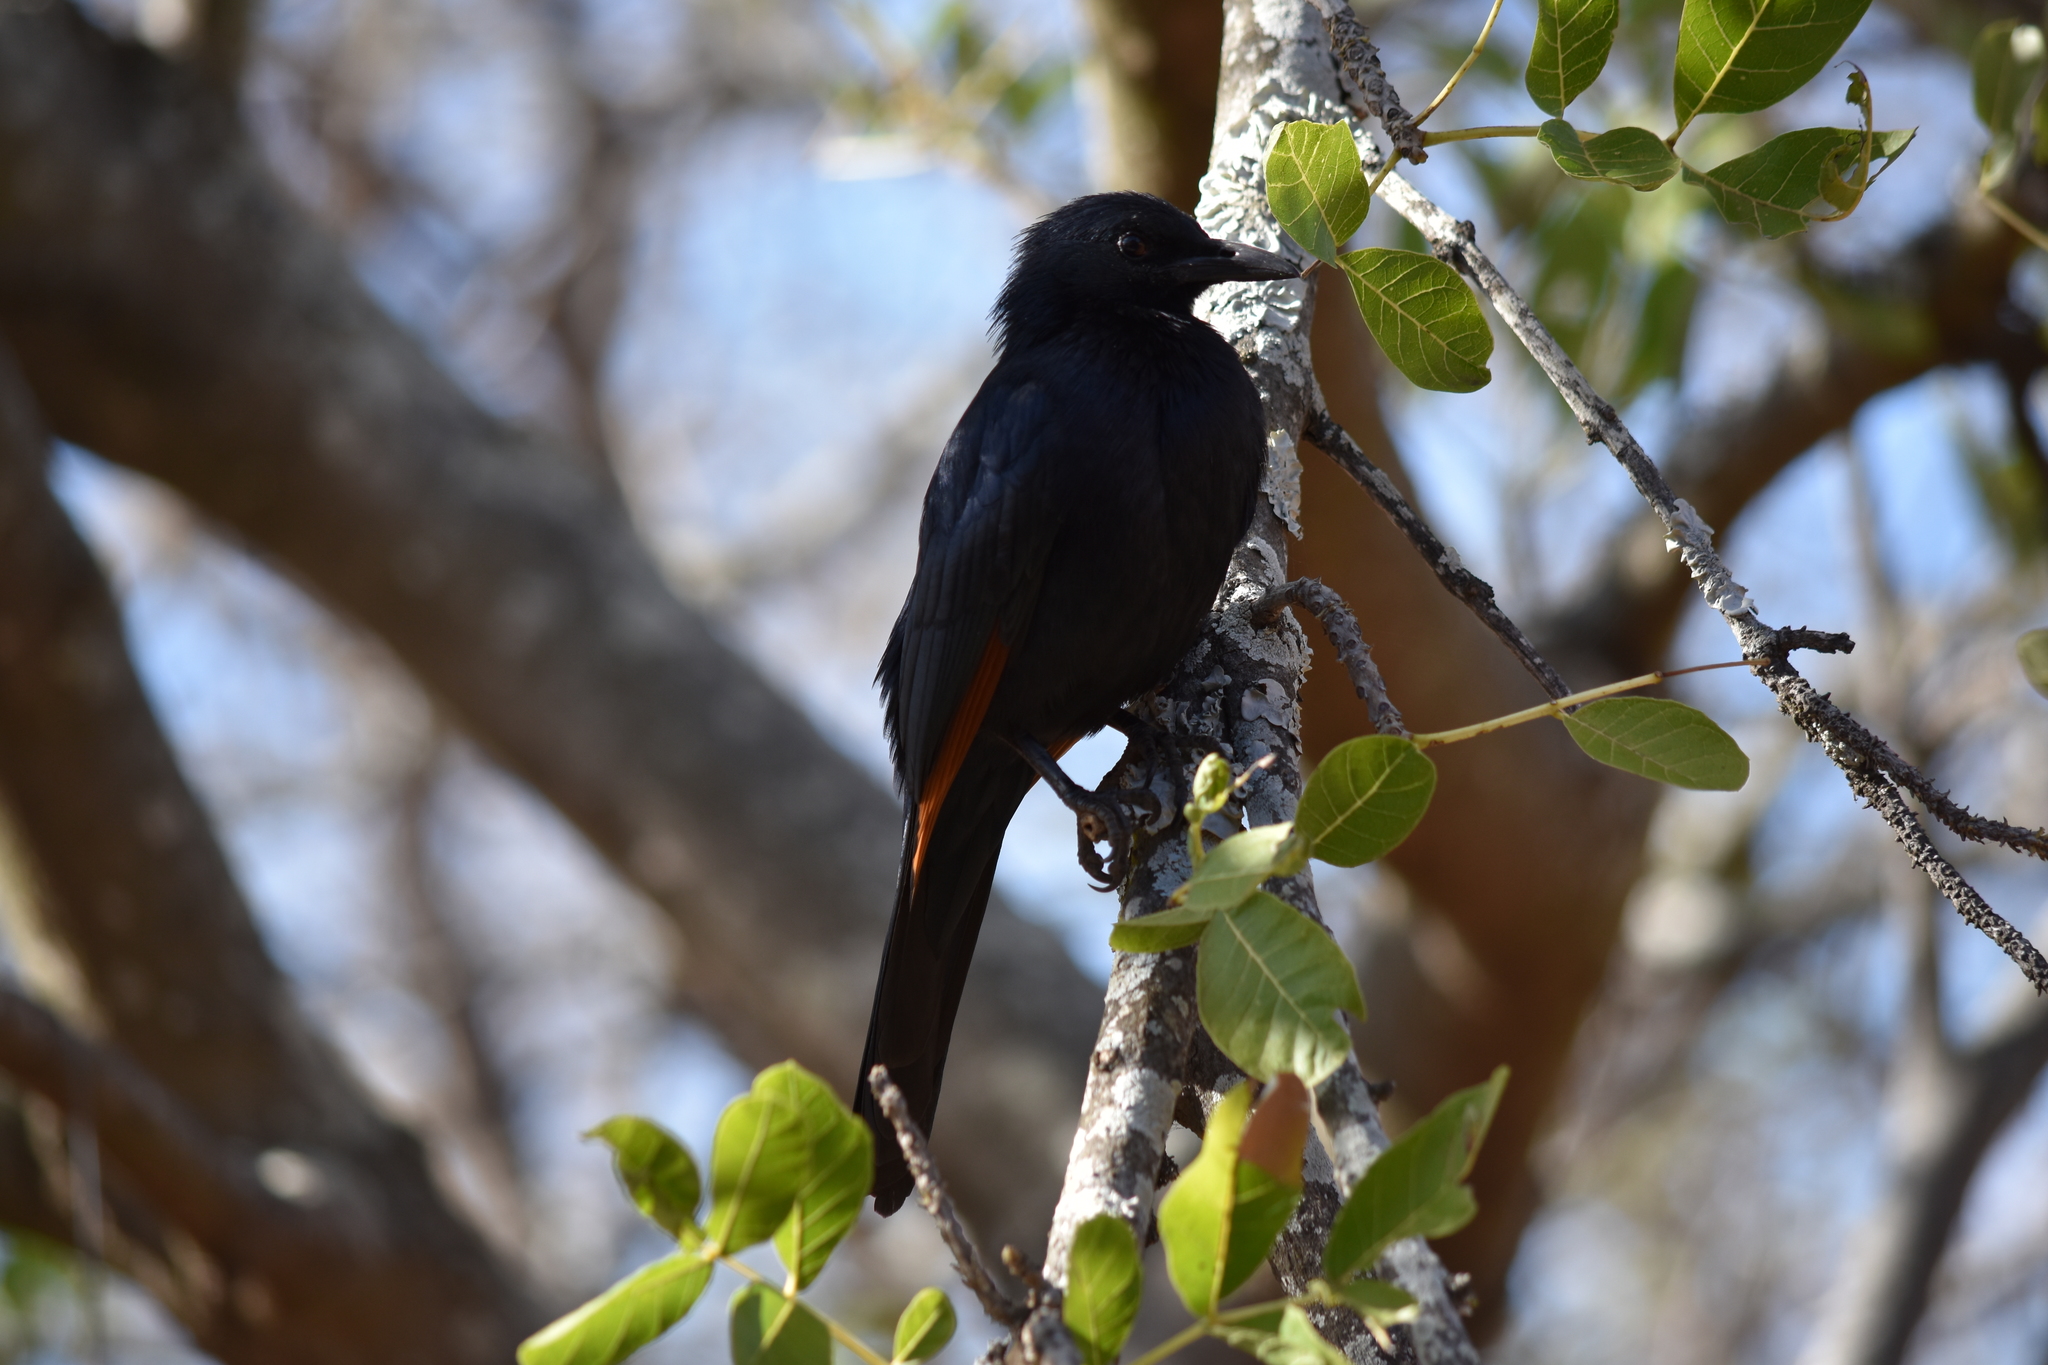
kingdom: Animalia
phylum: Chordata
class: Aves
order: Passeriformes
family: Sturnidae
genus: Onychognathus
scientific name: Onychognathus morio
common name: Red-winged starling
